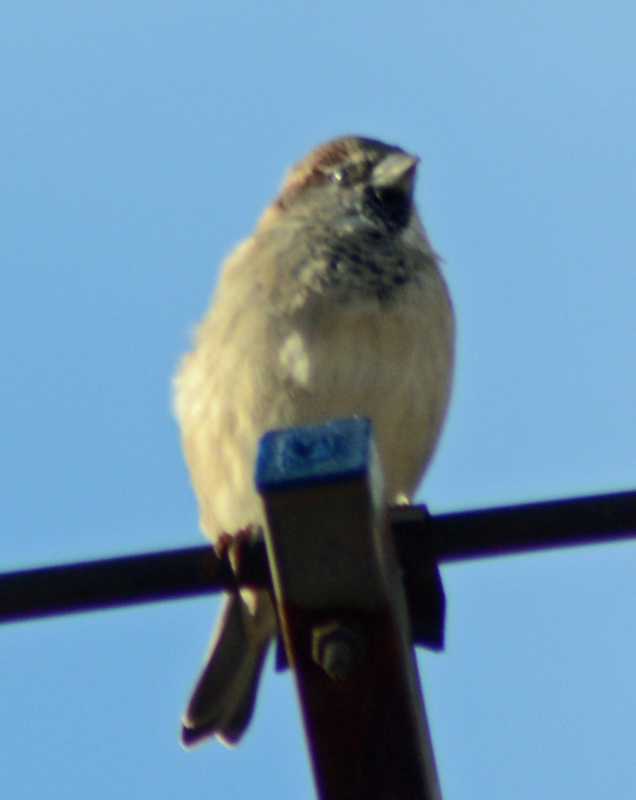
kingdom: Animalia
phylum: Chordata
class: Aves
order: Passeriformes
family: Passeridae
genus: Passer
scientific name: Passer domesticus
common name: House sparrow
